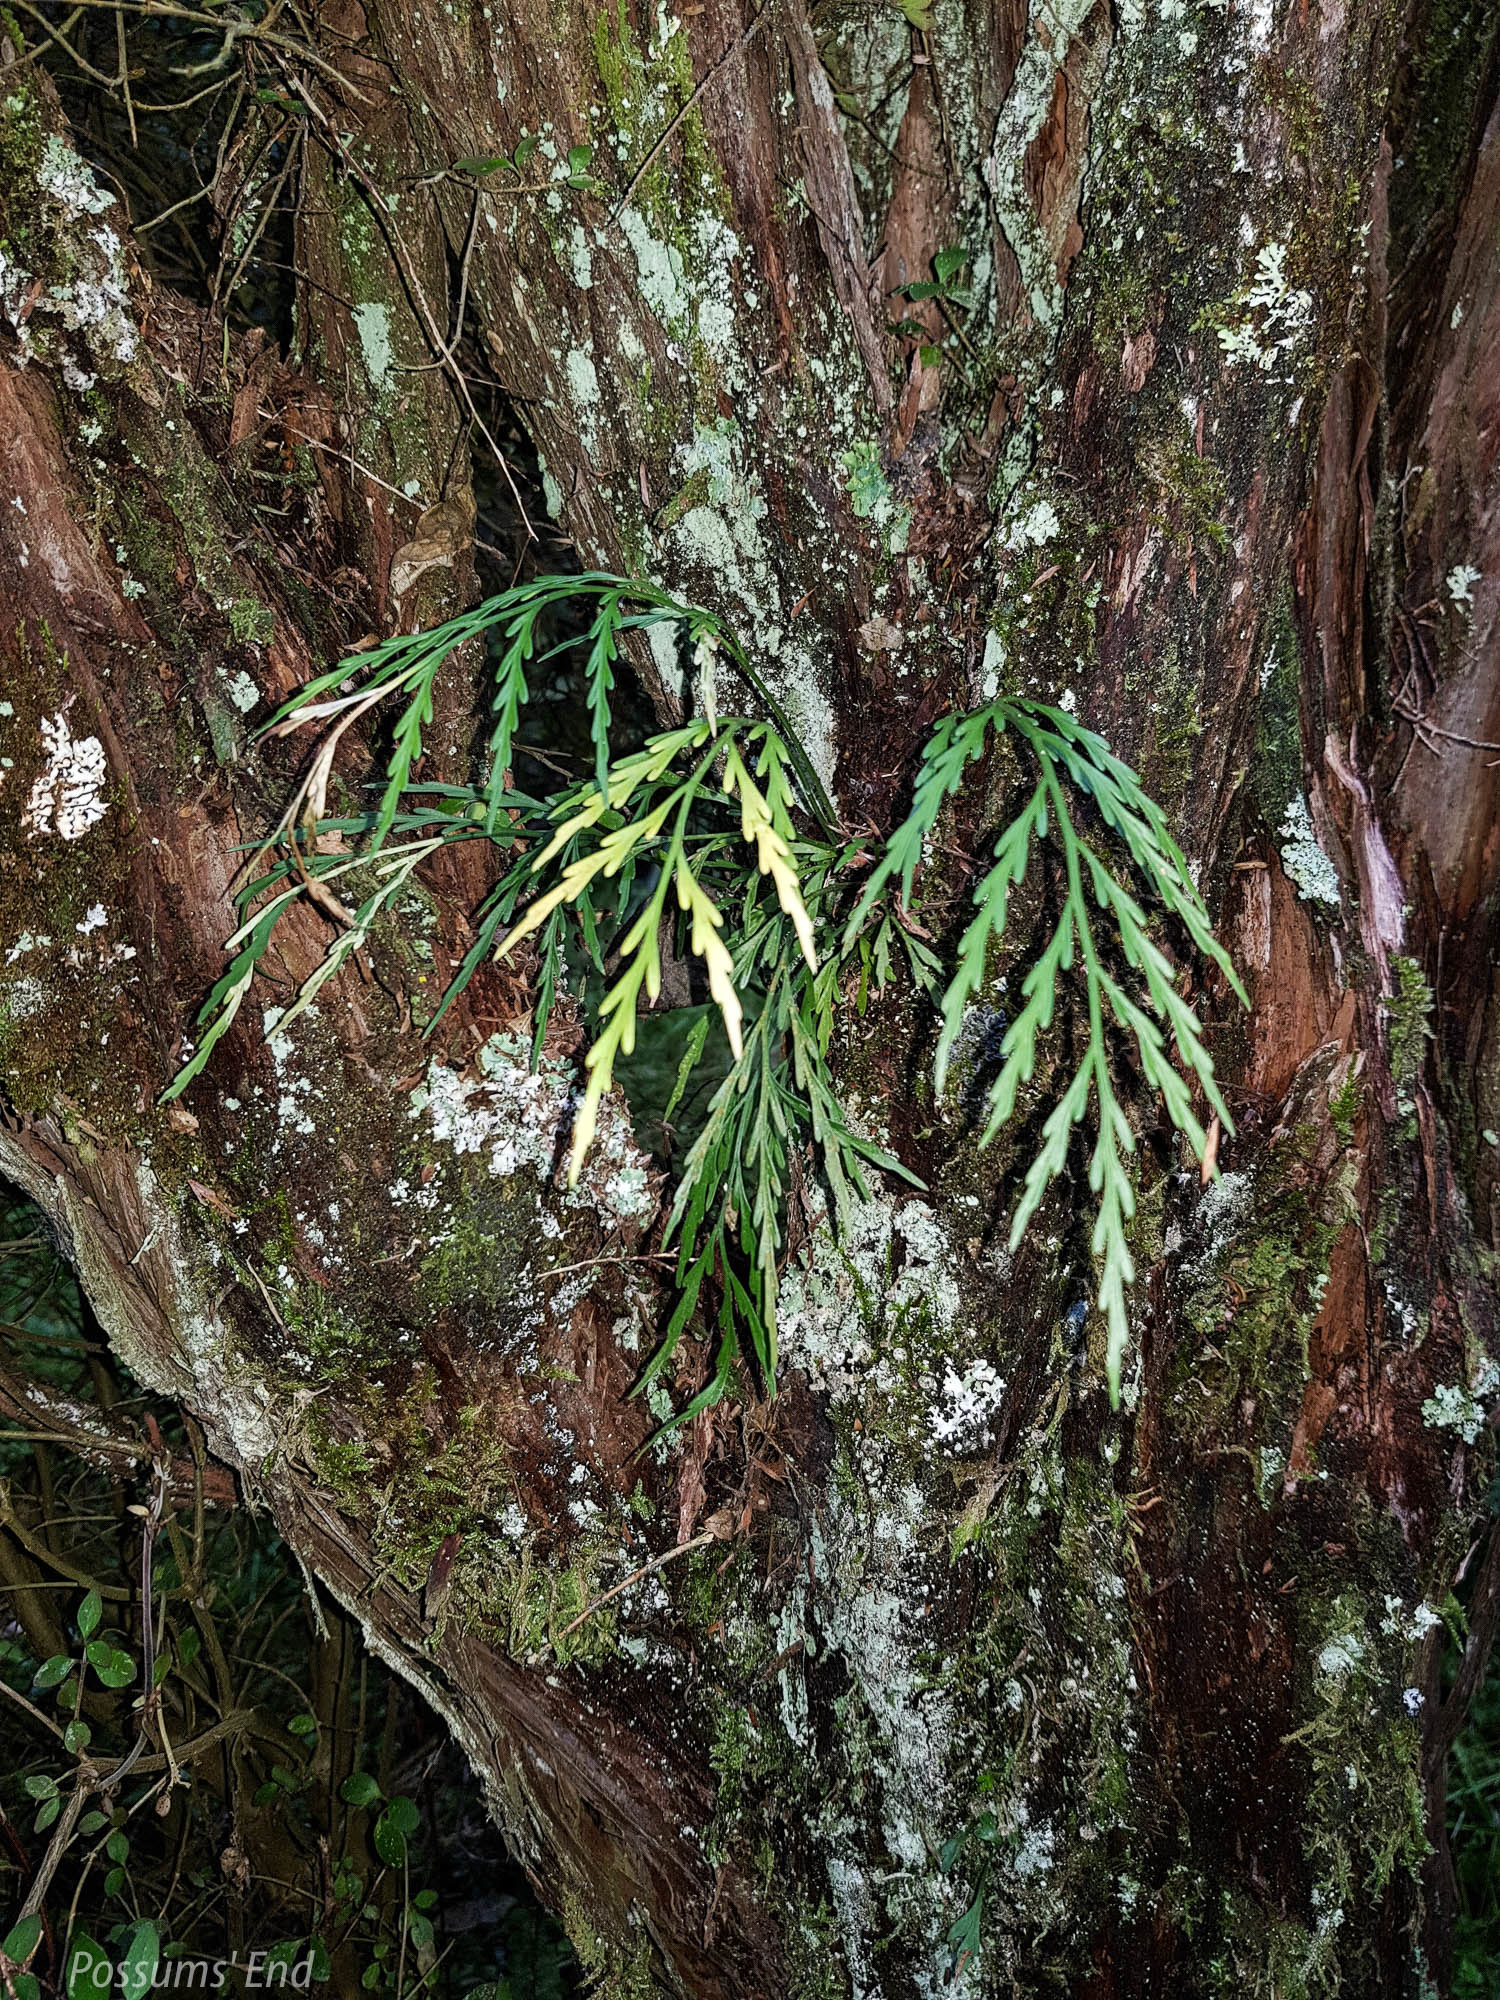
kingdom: Plantae
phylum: Tracheophyta
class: Polypodiopsida
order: Polypodiales
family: Aspleniaceae
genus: Asplenium
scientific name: Asplenium flaccidum
